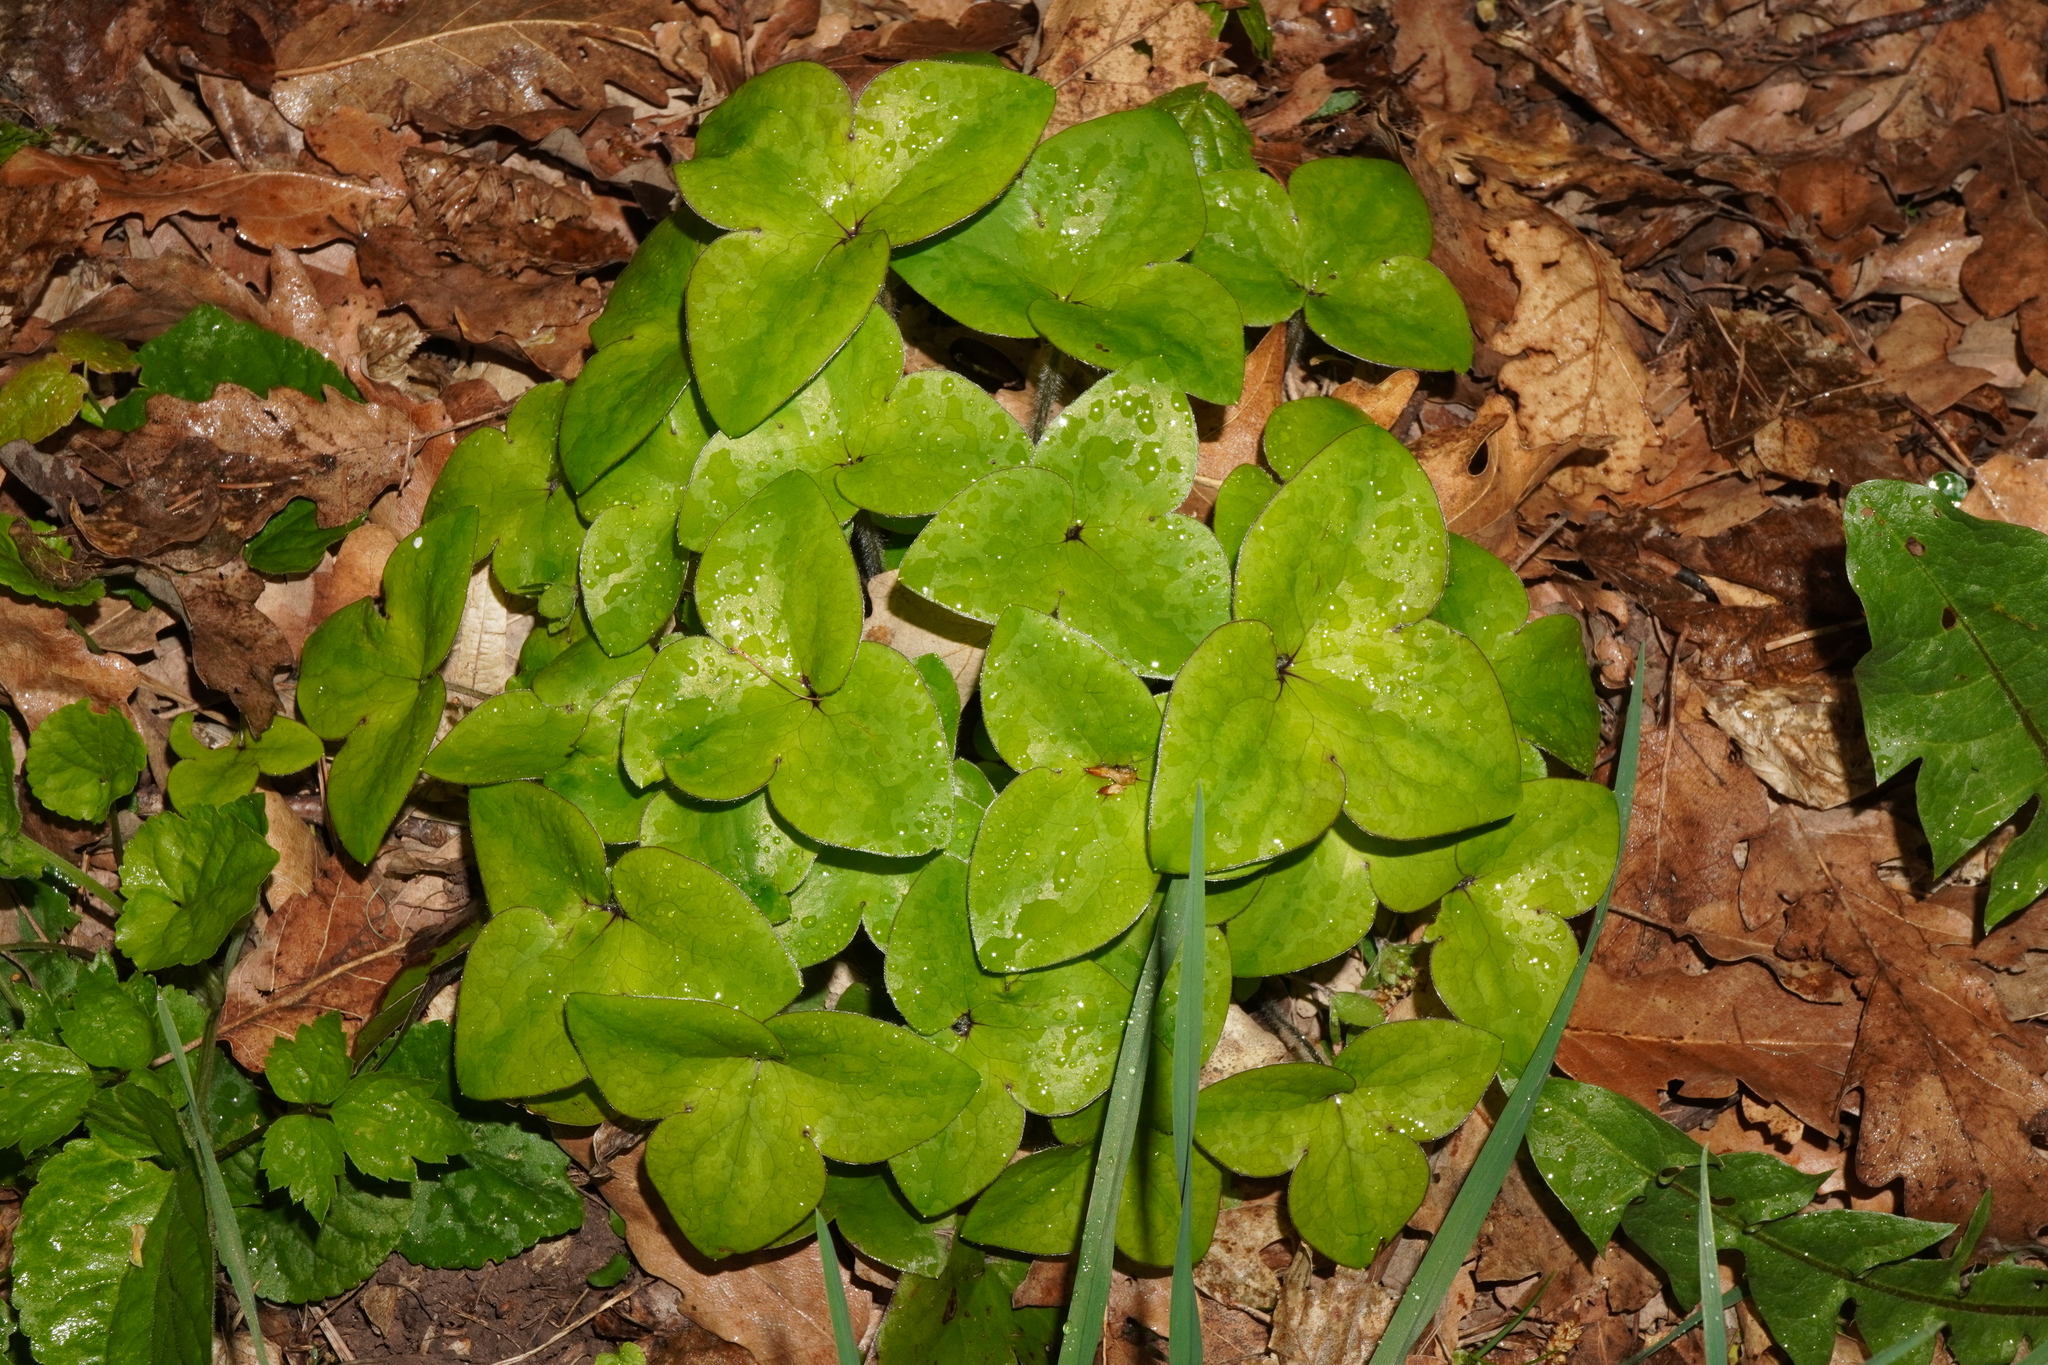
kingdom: Plantae
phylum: Tracheophyta
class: Magnoliopsida
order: Ranunculales
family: Ranunculaceae
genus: Hepatica
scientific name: Hepatica nobilis
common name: Liverleaf
